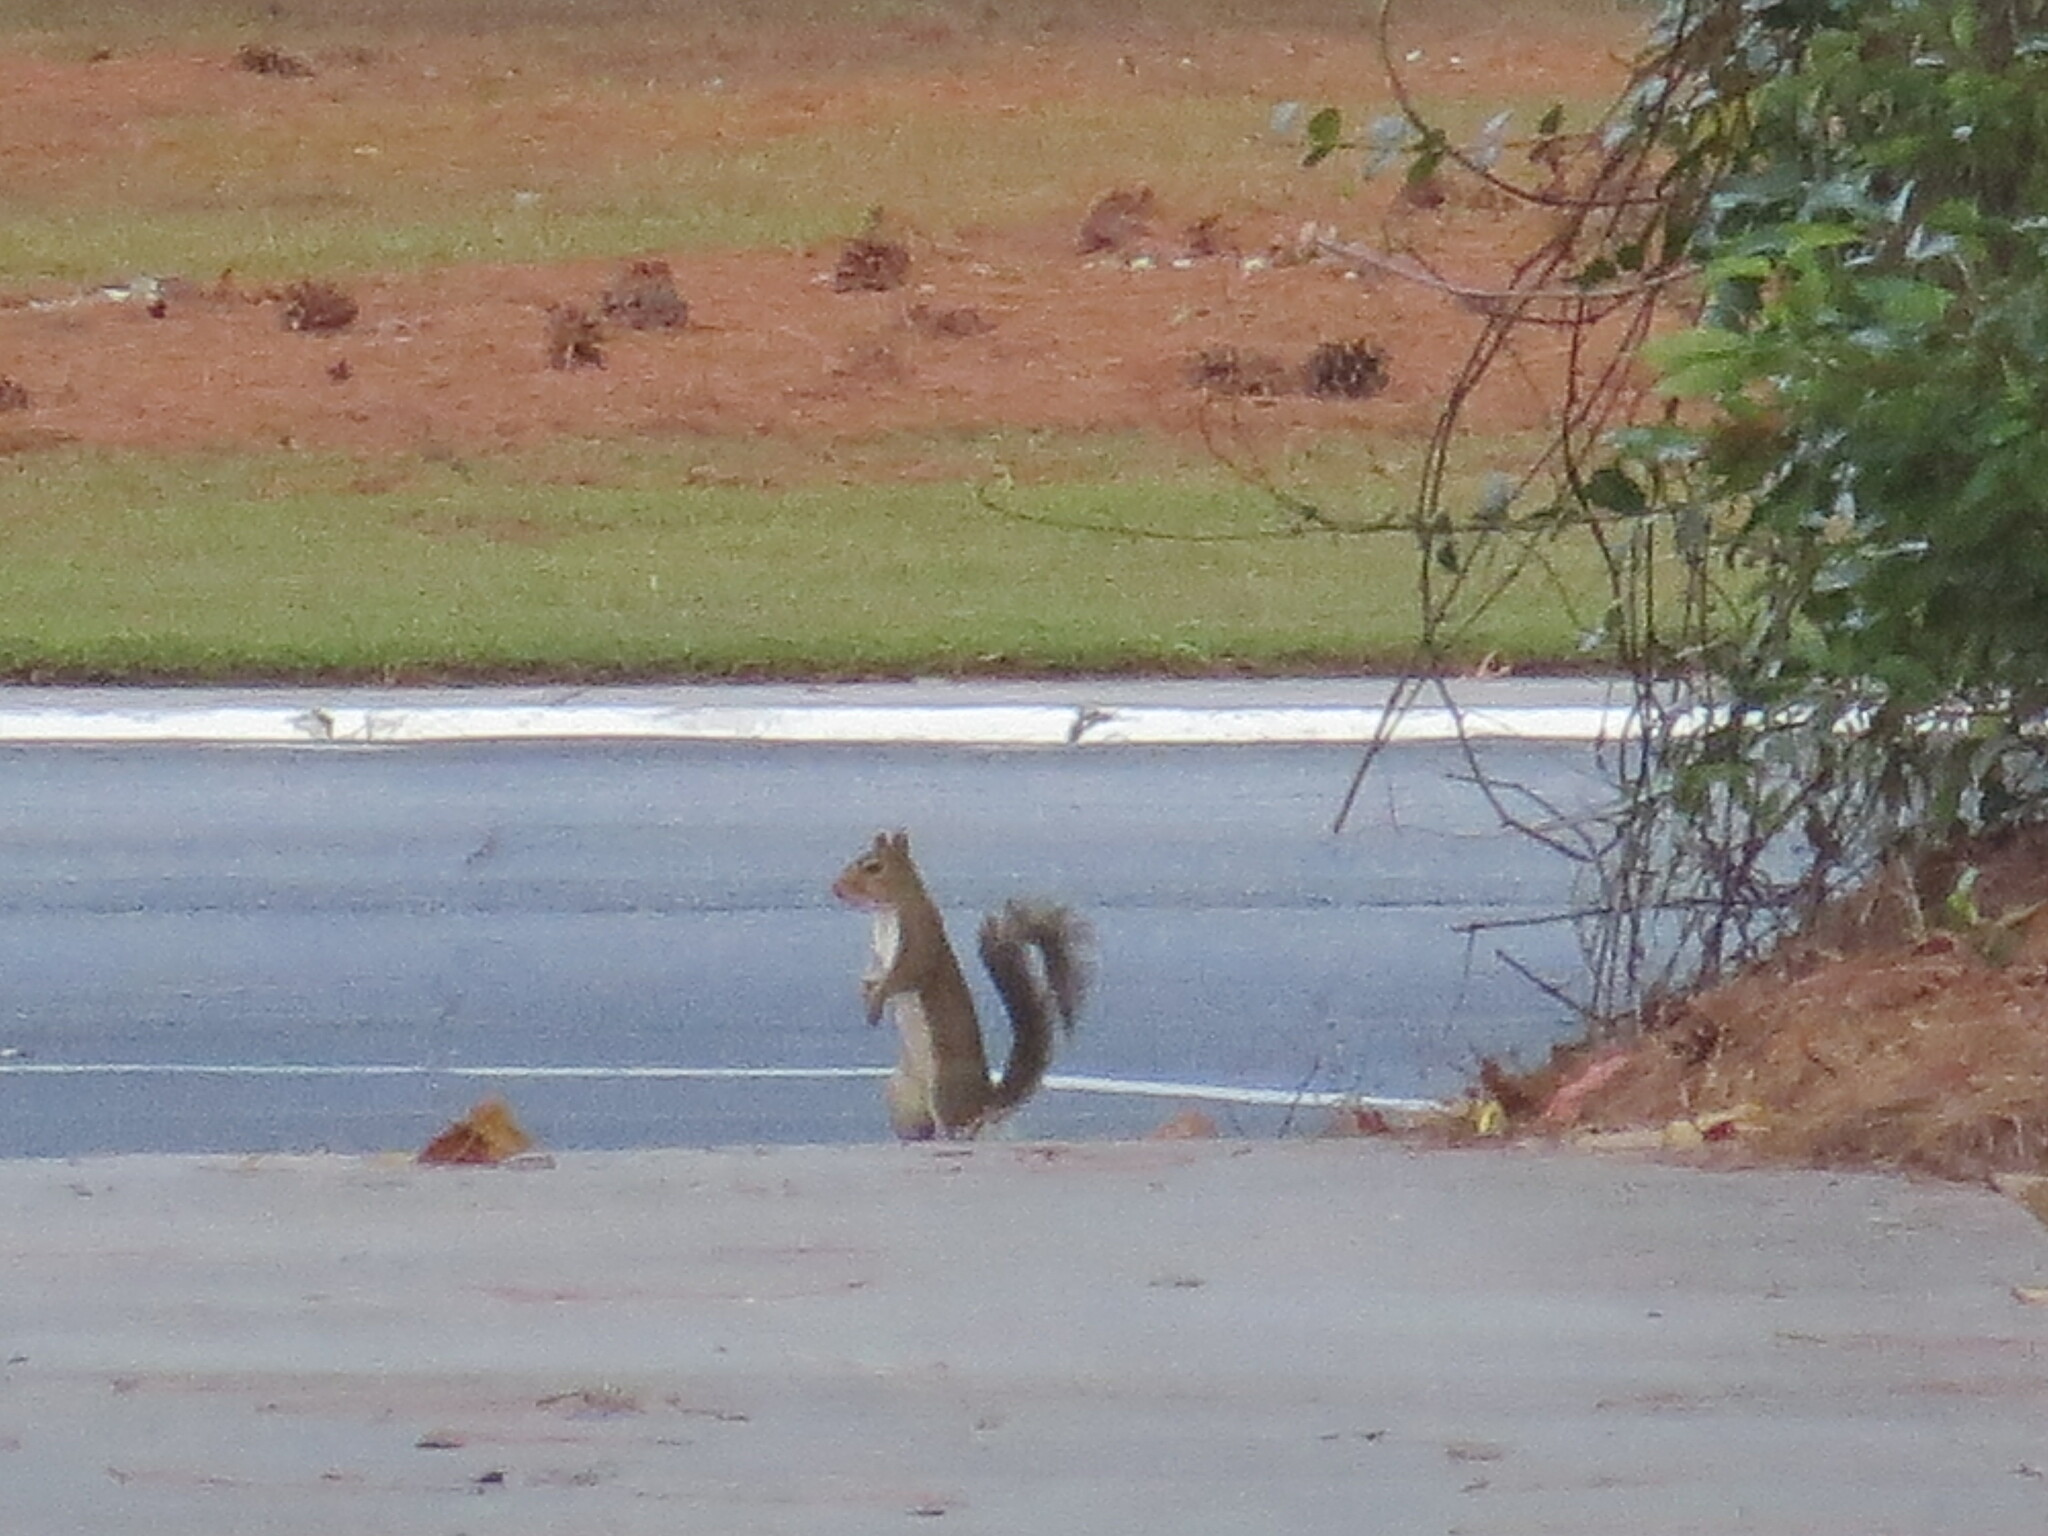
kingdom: Animalia
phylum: Chordata
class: Mammalia
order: Rodentia
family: Sciuridae
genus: Sciurus
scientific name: Sciurus carolinensis
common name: Eastern gray squirrel
